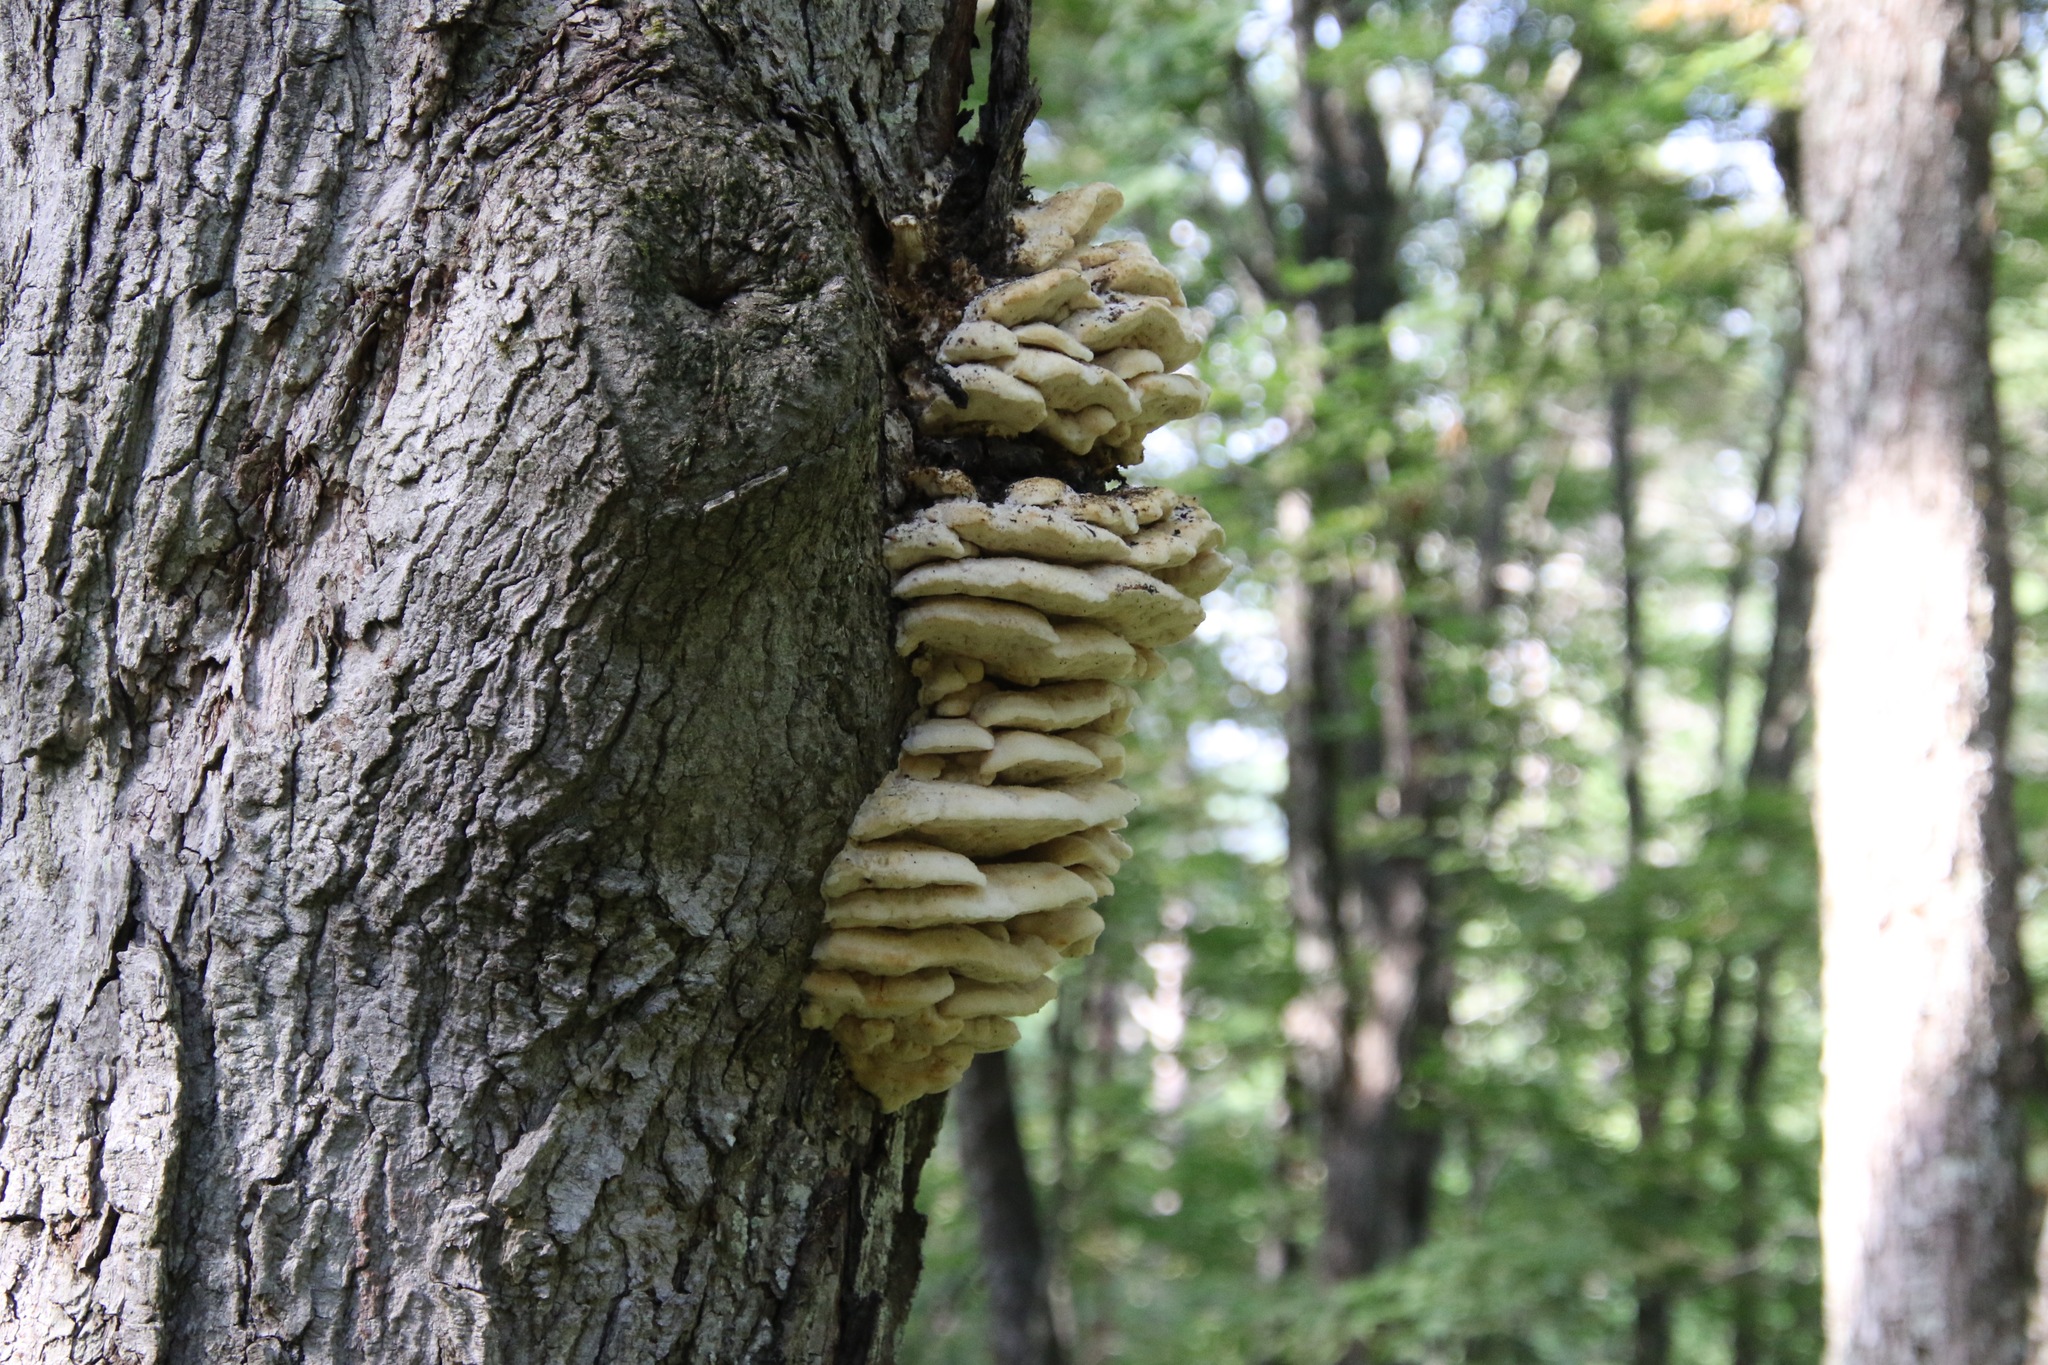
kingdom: Fungi
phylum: Basidiomycota
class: Agaricomycetes
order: Polyporales
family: Meruliaceae
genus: Climacodon
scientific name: Climacodon septentrionalis
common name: Northern tooth
